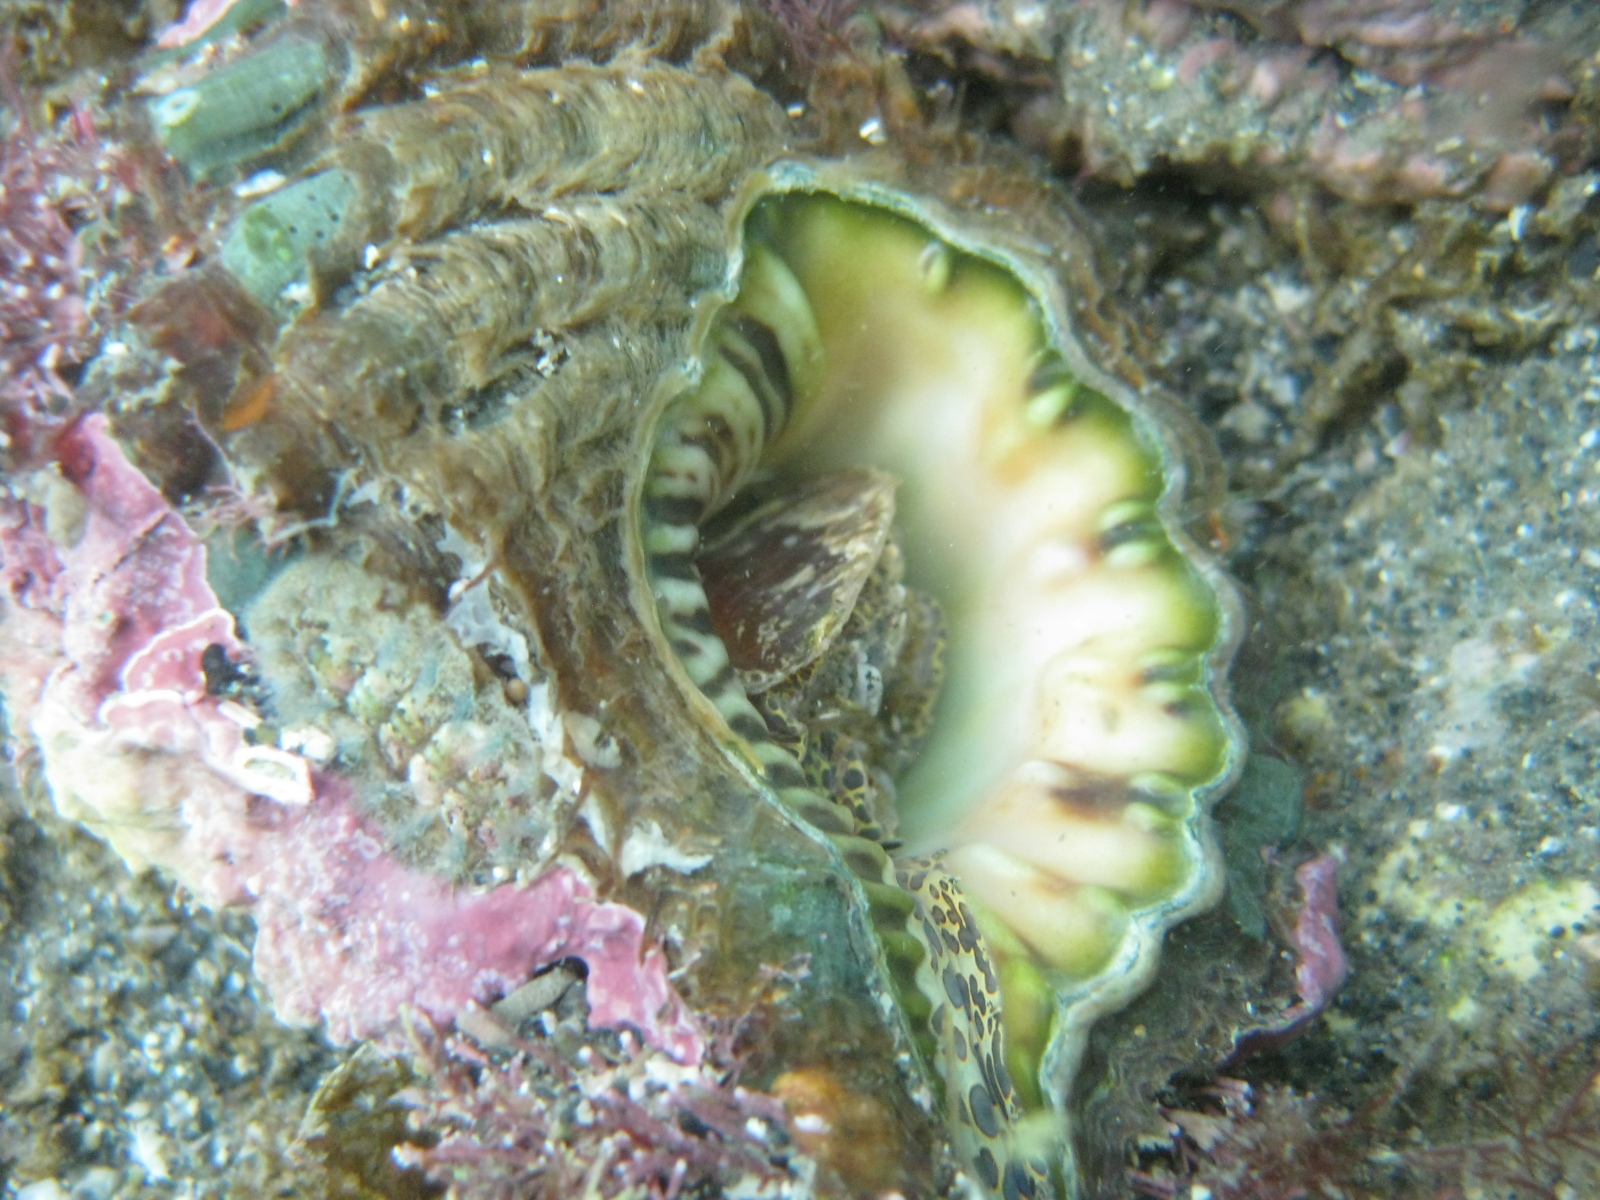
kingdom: Animalia
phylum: Mollusca
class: Gastropoda
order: Littorinimorpha
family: Cymatiidae
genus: Monoplex
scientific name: Monoplex parthenopeus
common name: Giant triton
